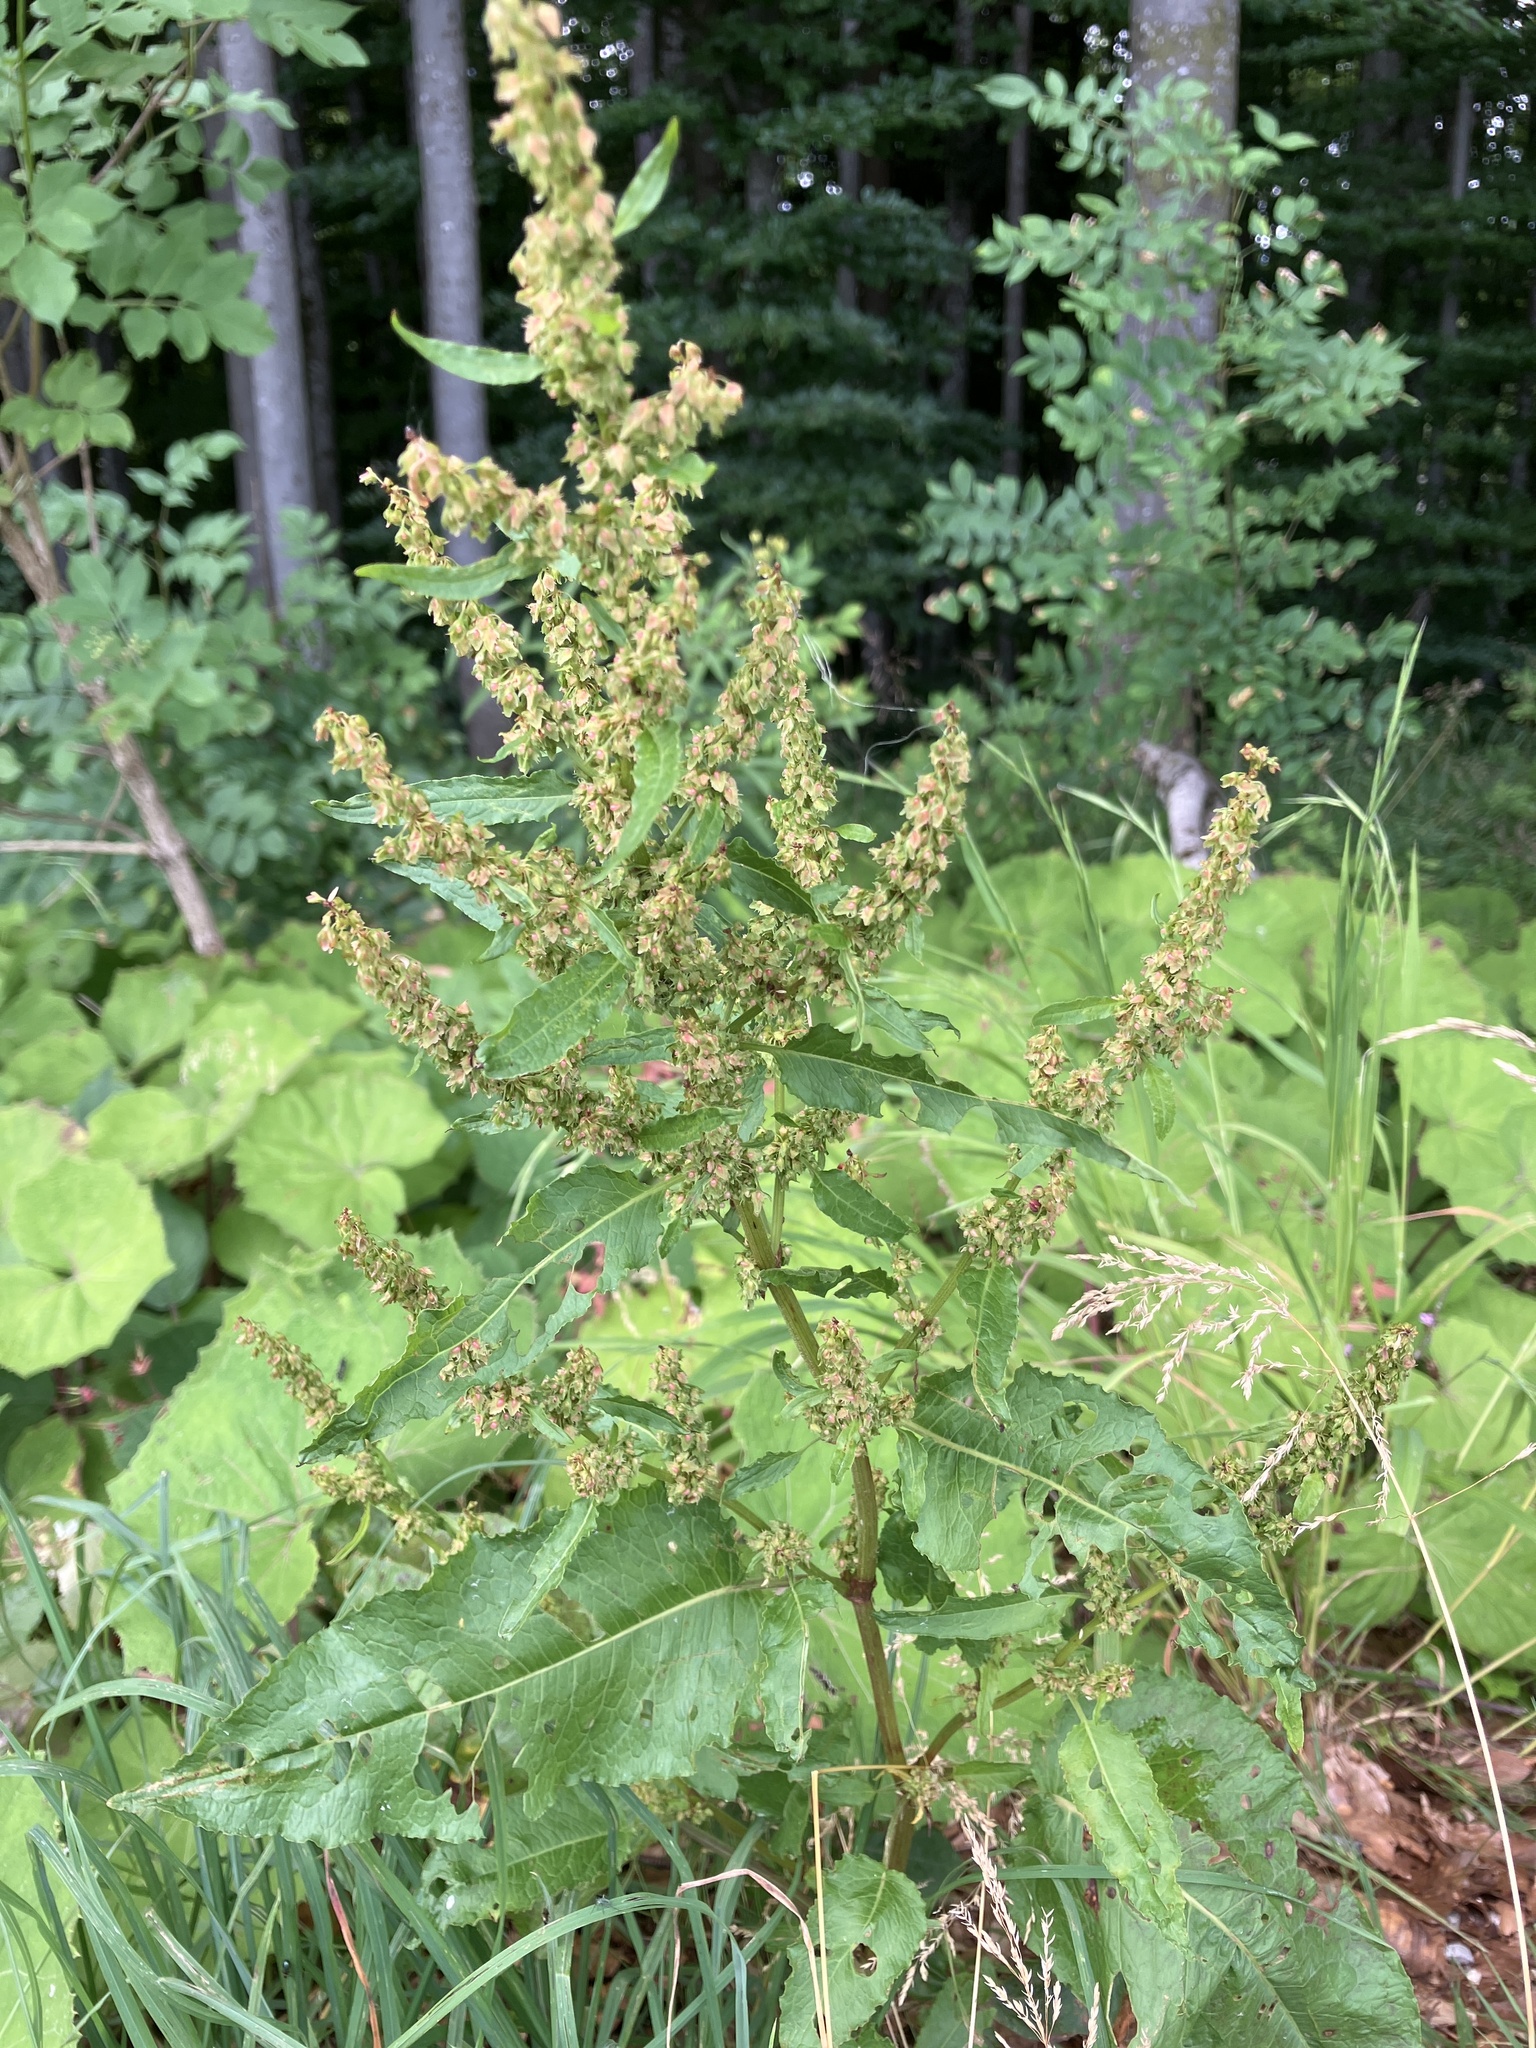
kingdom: Plantae
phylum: Tracheophyta
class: Magnoliopsida
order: Caryophyllales
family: Polygonaceae
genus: Rumex
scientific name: Rumex obtusifolius
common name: Bitter dock
